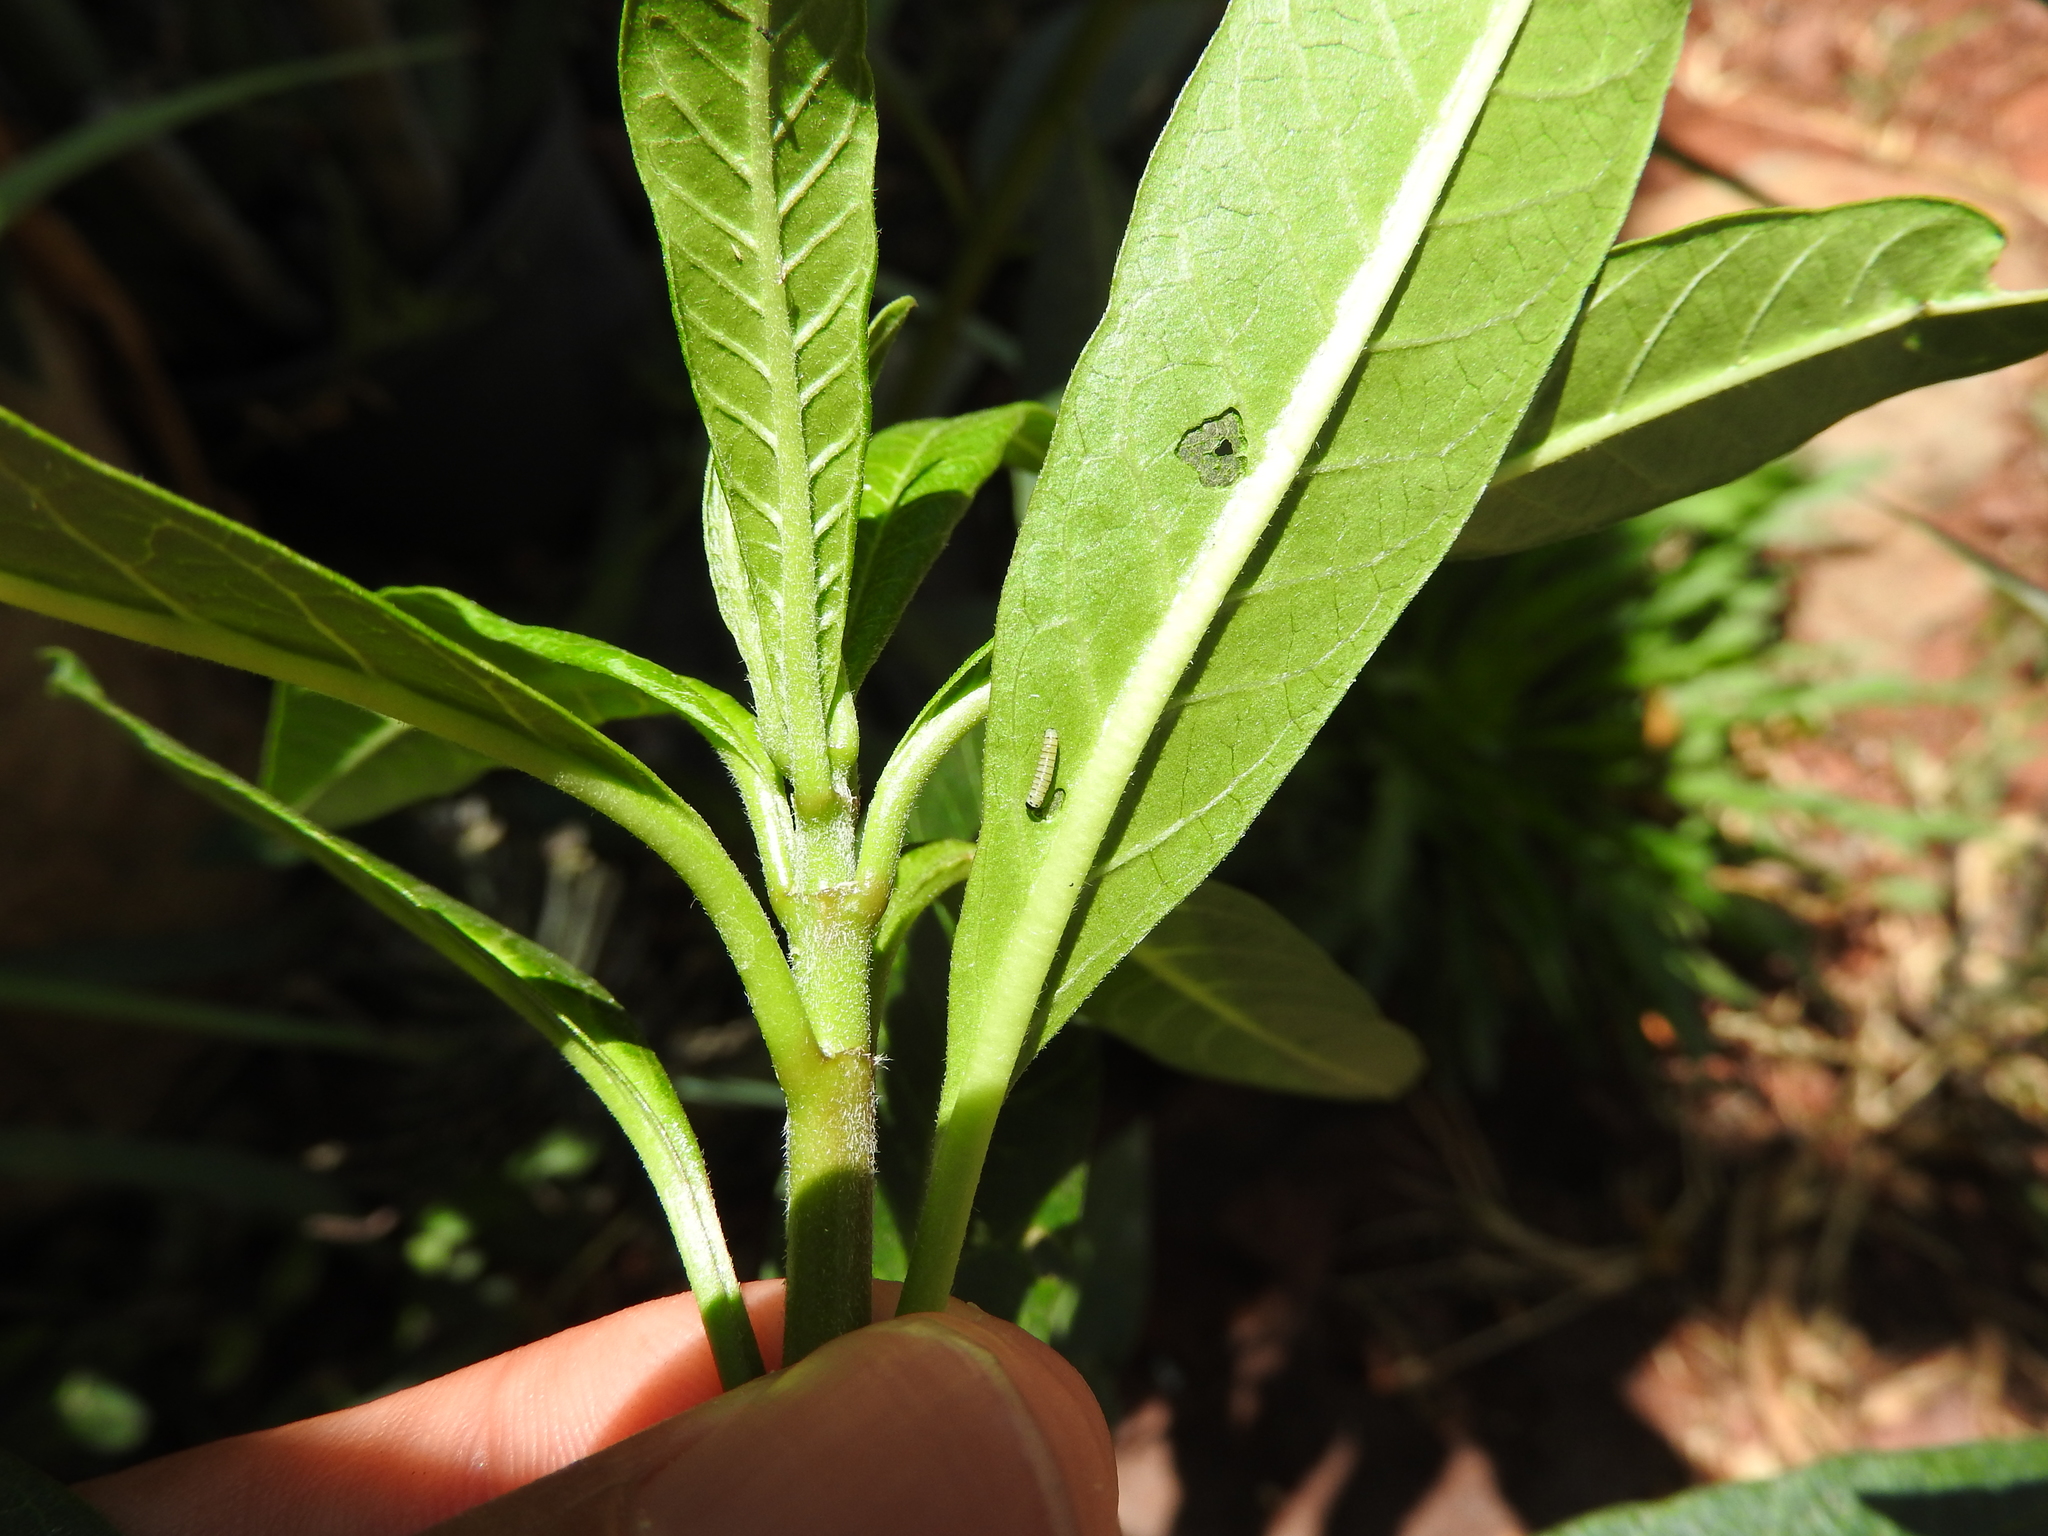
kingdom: Animalia
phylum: Arthropoda
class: Insecta
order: Lepidoptera
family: Nymphalidae
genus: Danaus
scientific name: Danaus plexippus
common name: Monarch
